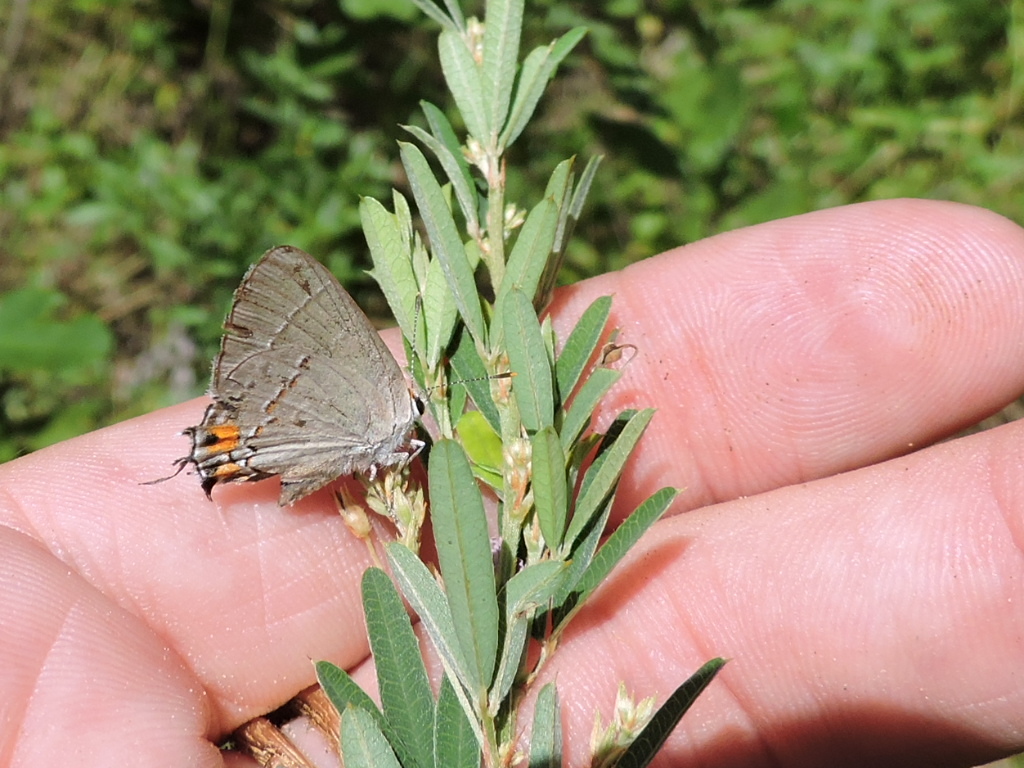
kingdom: Animalia
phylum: Arthropoda
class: Insecta
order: Lepidoptera
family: Lycaenidae
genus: Strymon
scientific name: Strymon melinus
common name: Gray hairstreak
